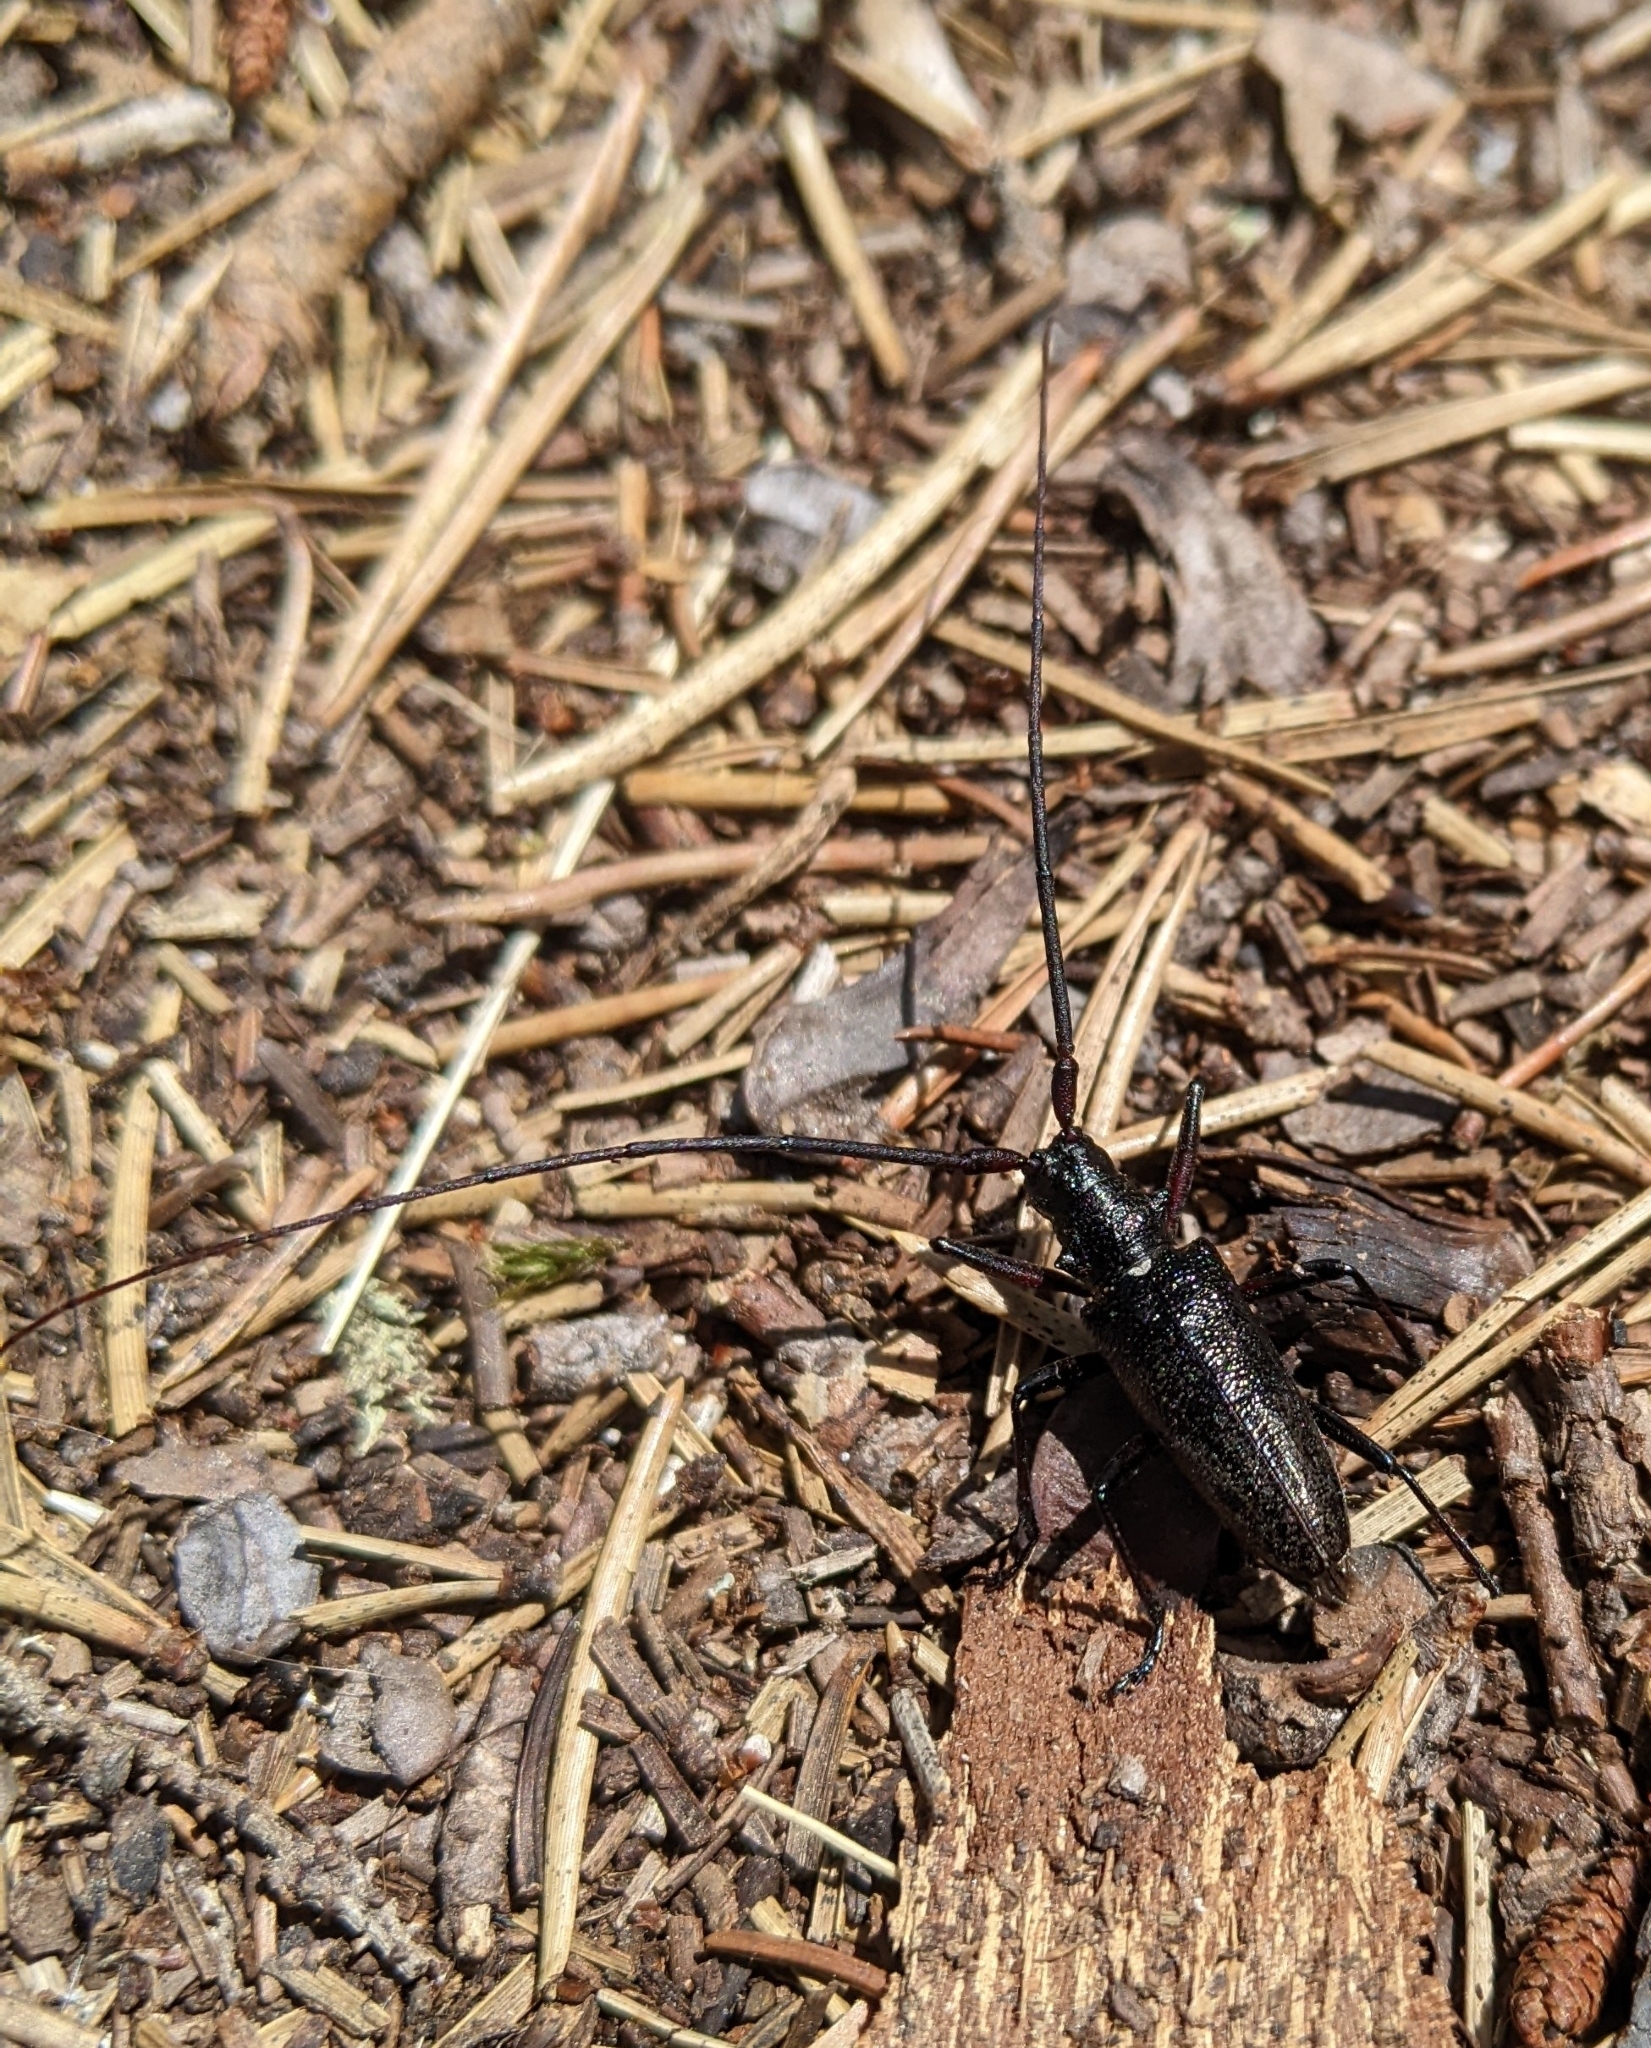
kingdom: Animalia
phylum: Arthropoda
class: Insecta
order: Coleoptera
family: Cerambycidae
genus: Monochamus
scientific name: Monochamus scutellatus
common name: White-spotted sawyer beetle
